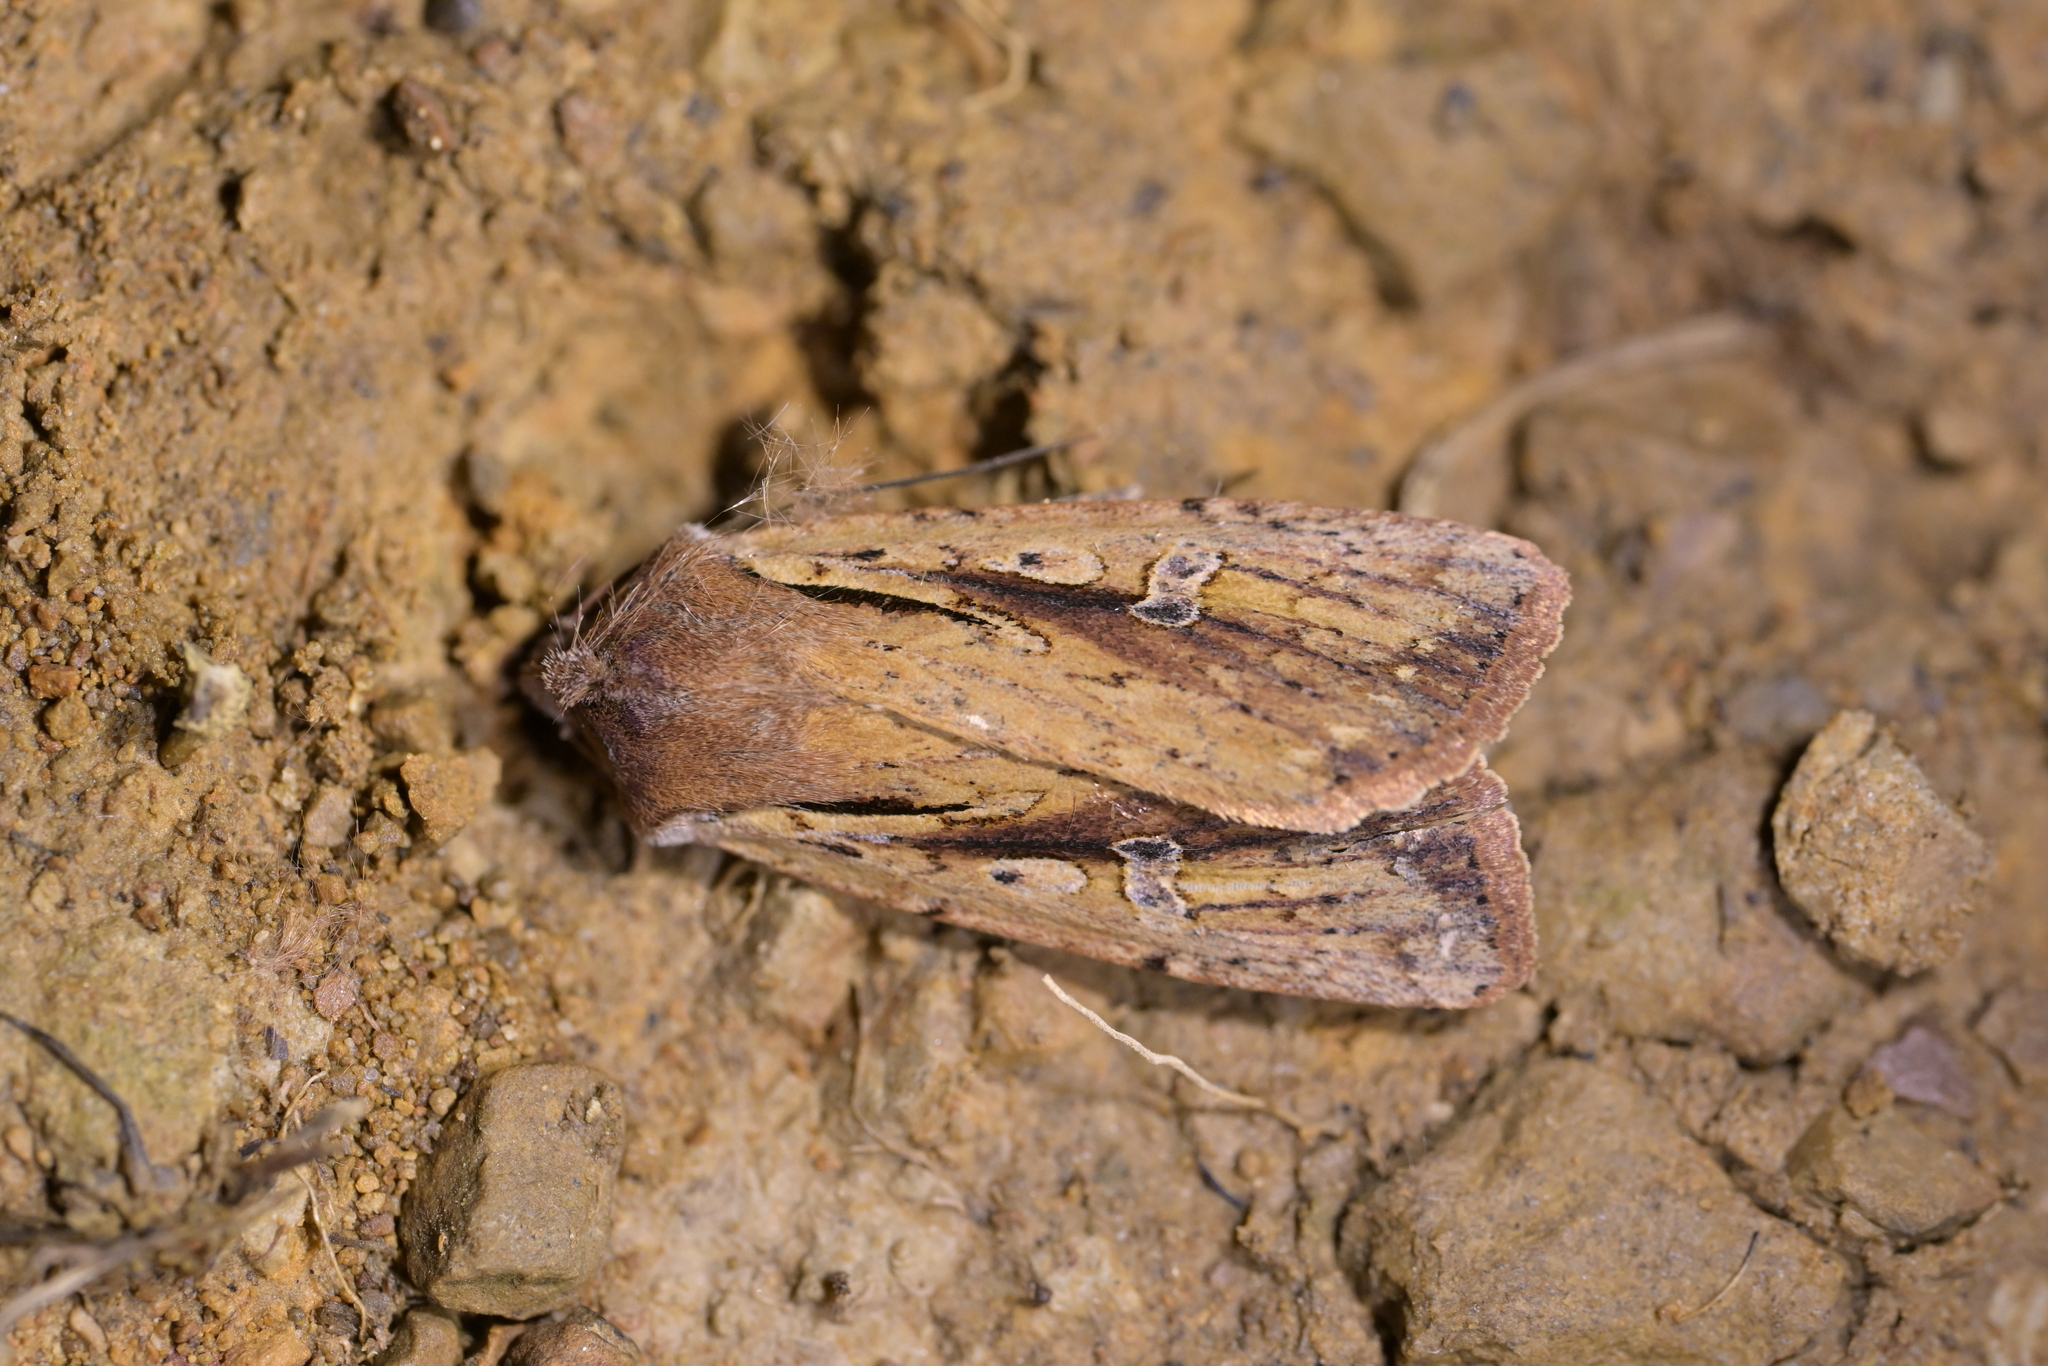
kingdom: Animalia
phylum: Arthropoda
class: Insecta
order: Lepidoptera
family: Noctuidae
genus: Ichneutica
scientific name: Ichneutica atristriga
